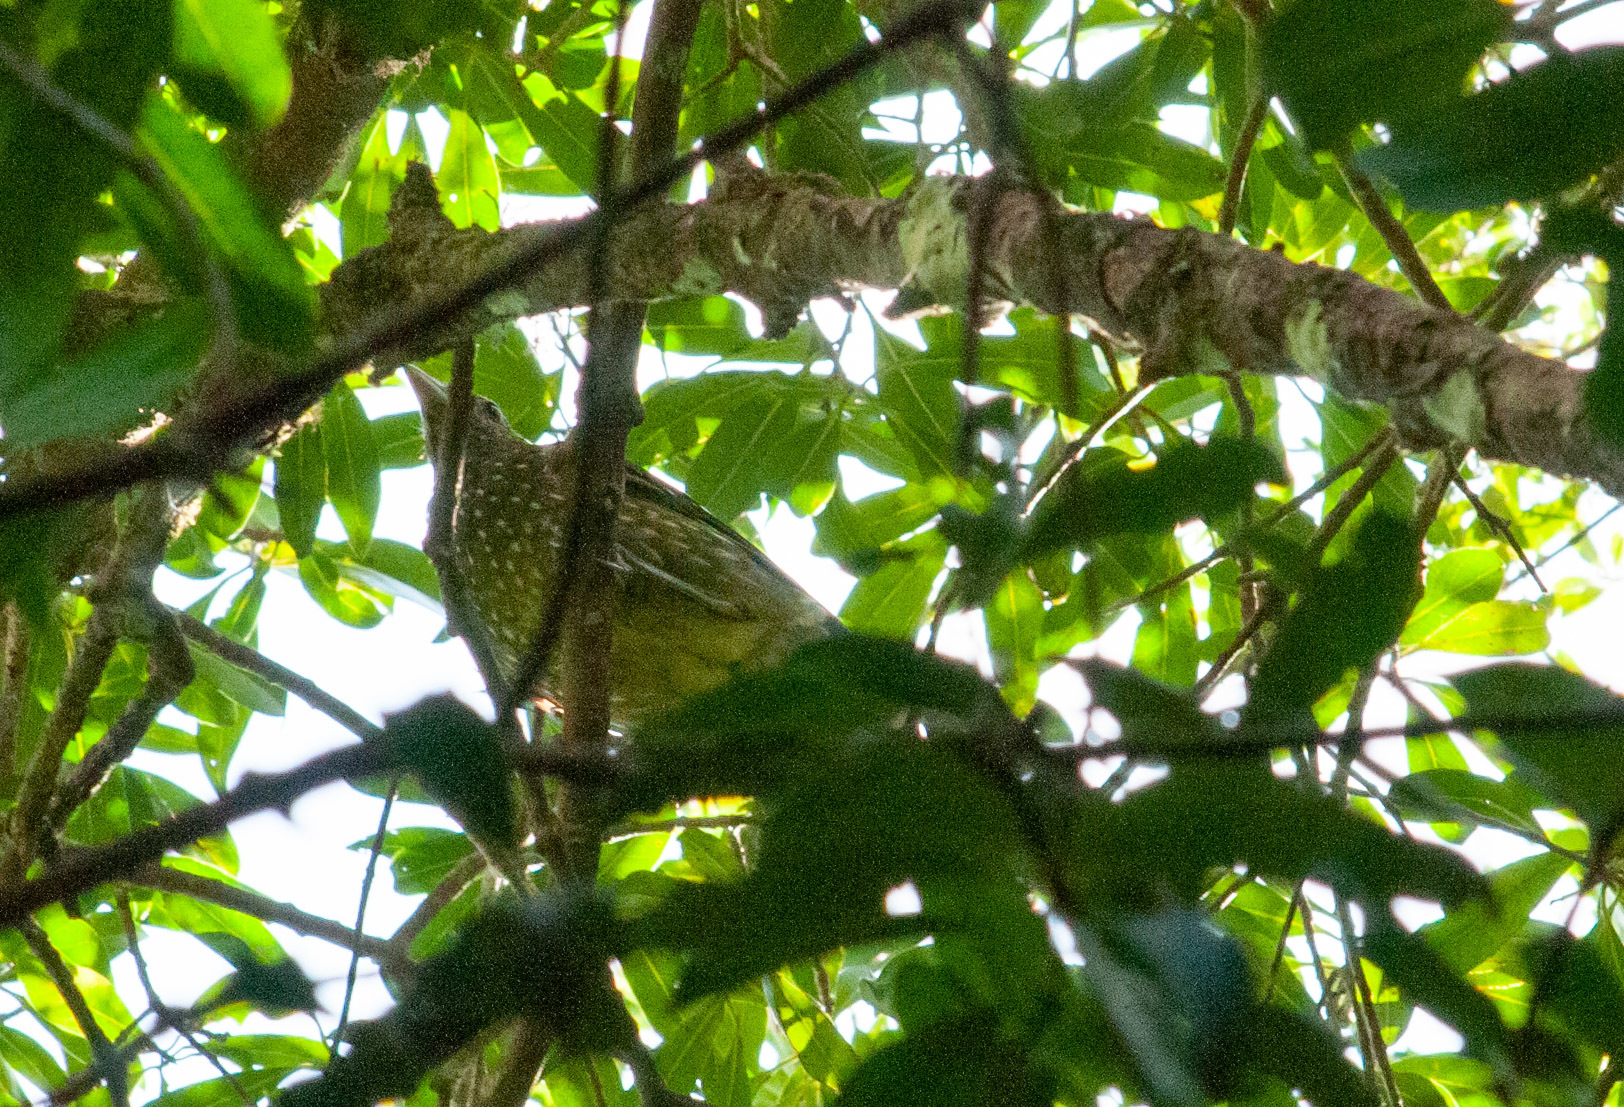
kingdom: Animalia
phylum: Chordata
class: Aves
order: Passeriformes
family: Ptilonorhynchidae
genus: Ailuroedus
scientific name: Ailuroedus crassirostris
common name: Green catbird
